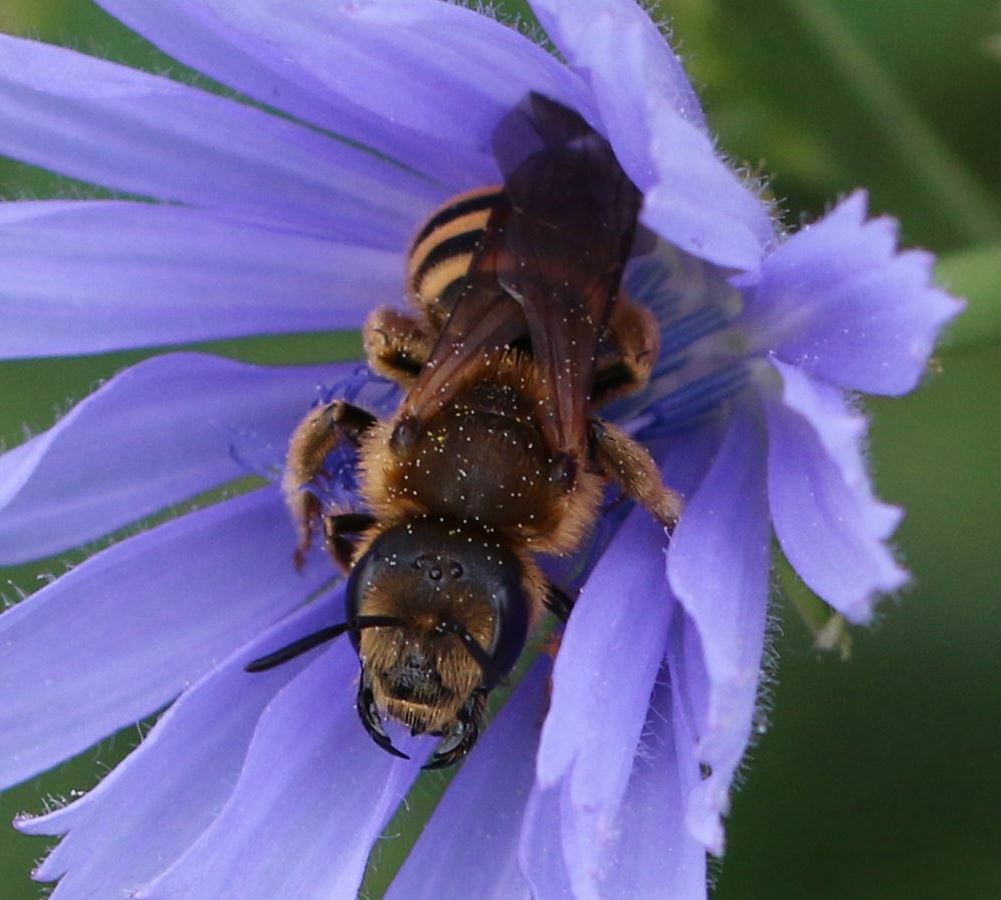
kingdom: Animalia
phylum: Arthropoda
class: Insecta
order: Hymenoptera
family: Halictidae
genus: Halictus
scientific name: Halictus scabiosae
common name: Great banded furrow bee
